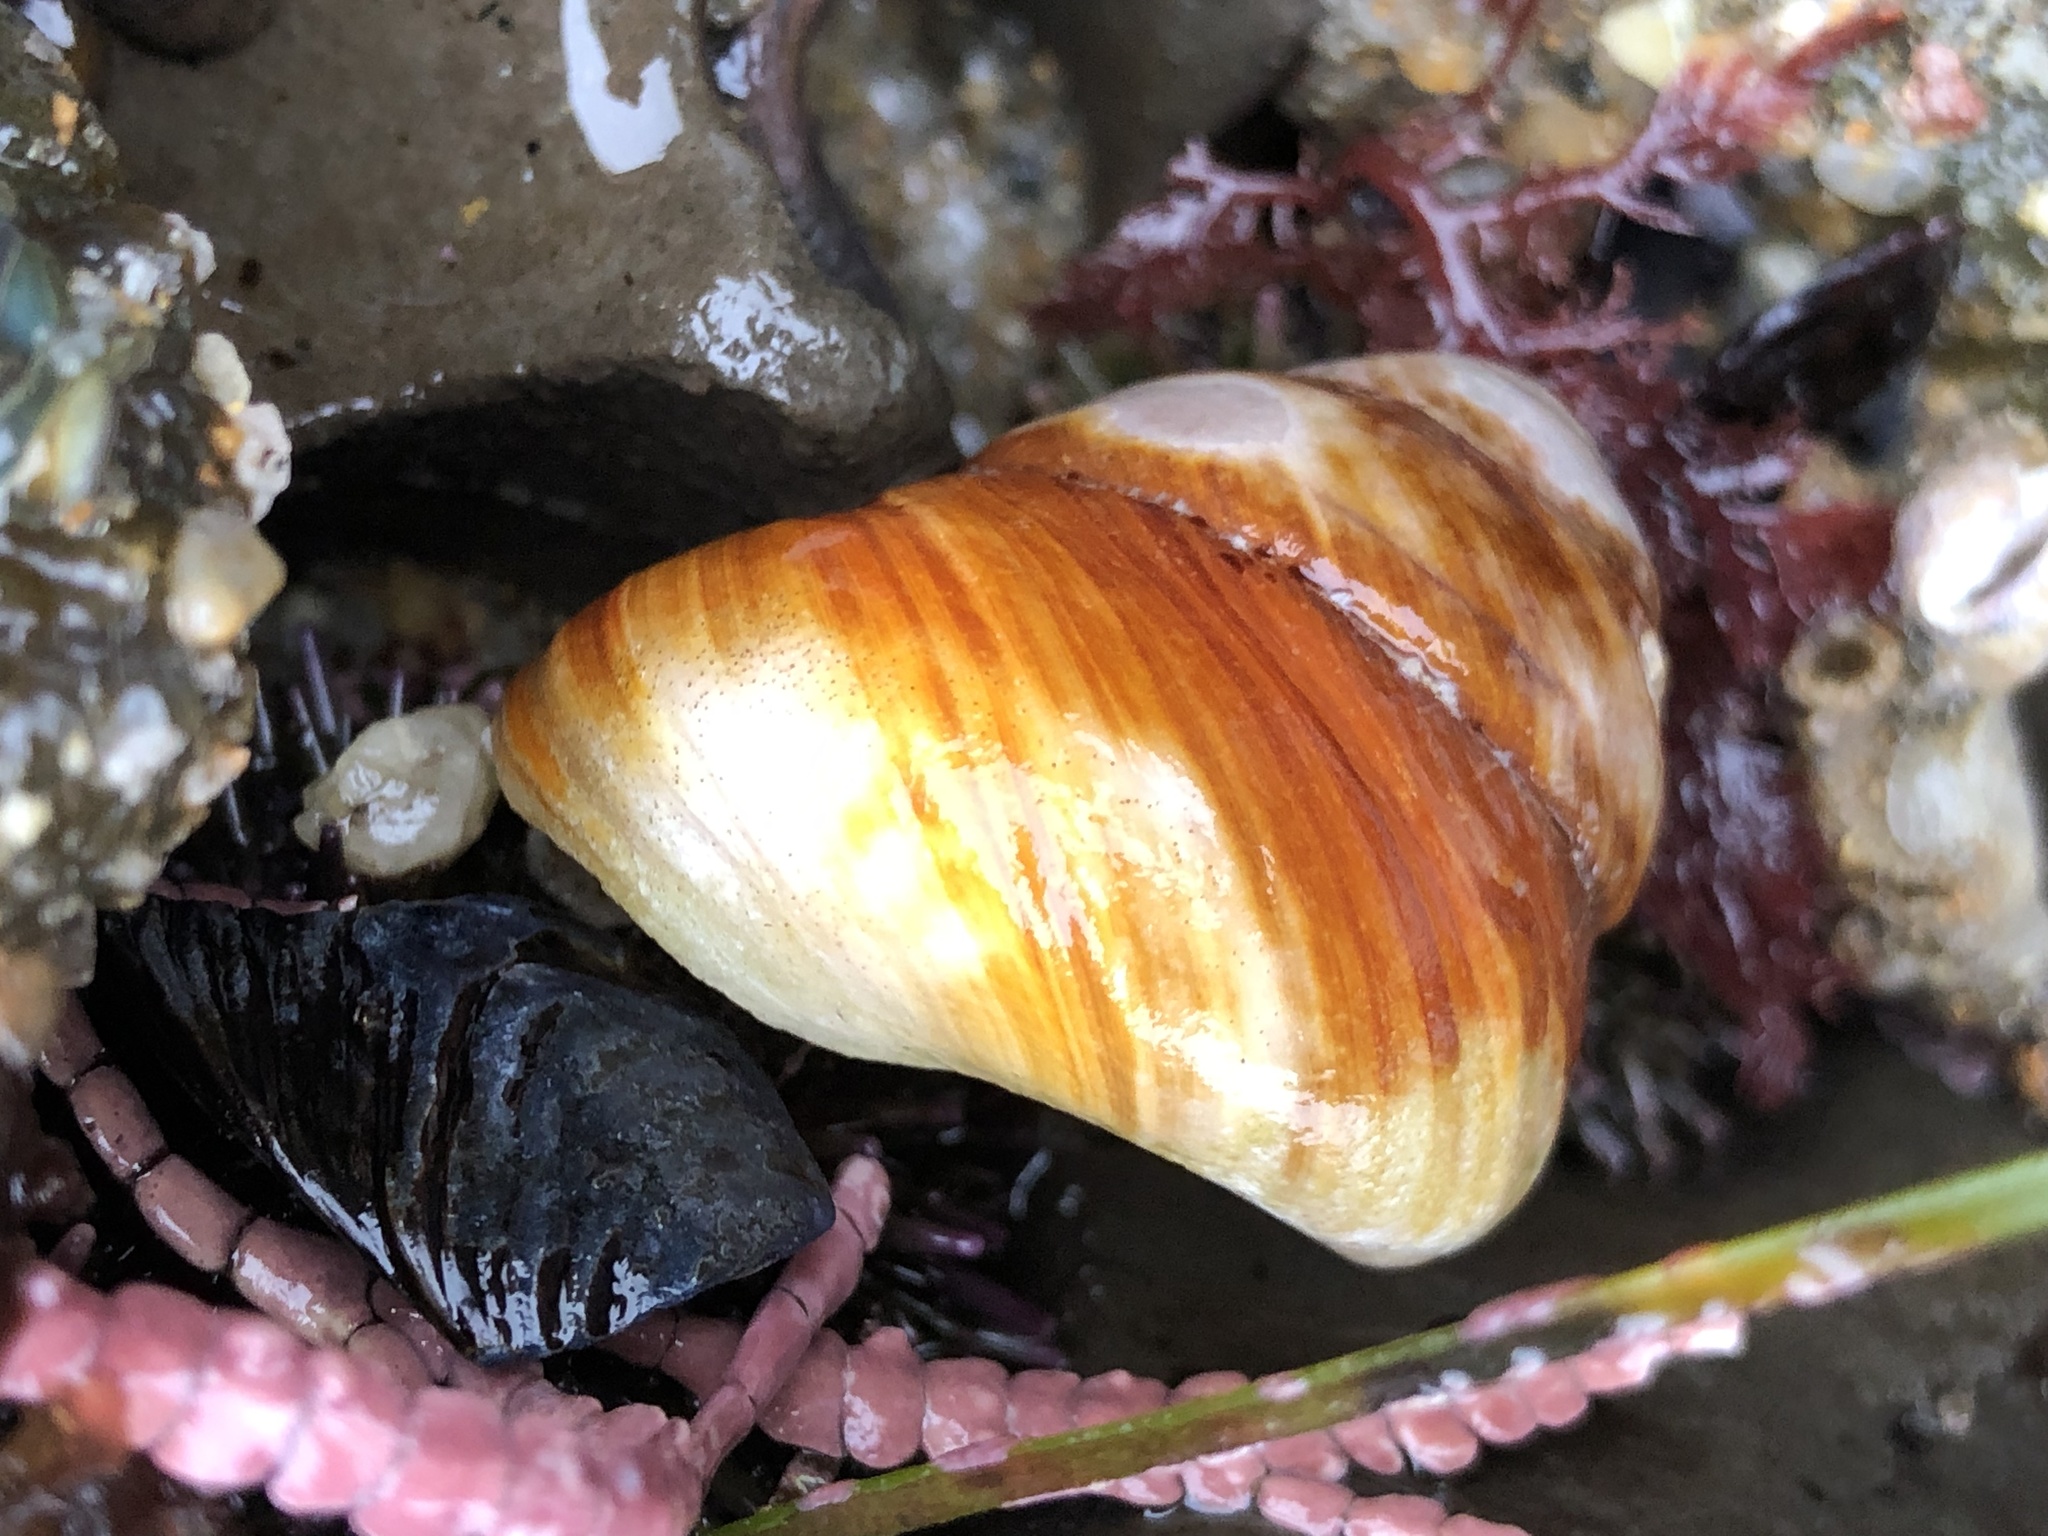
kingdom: Animalia
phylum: Mollusca
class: Gastropoda
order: Trochida
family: Tegulidae
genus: Tegula
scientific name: Tegula brunnea
